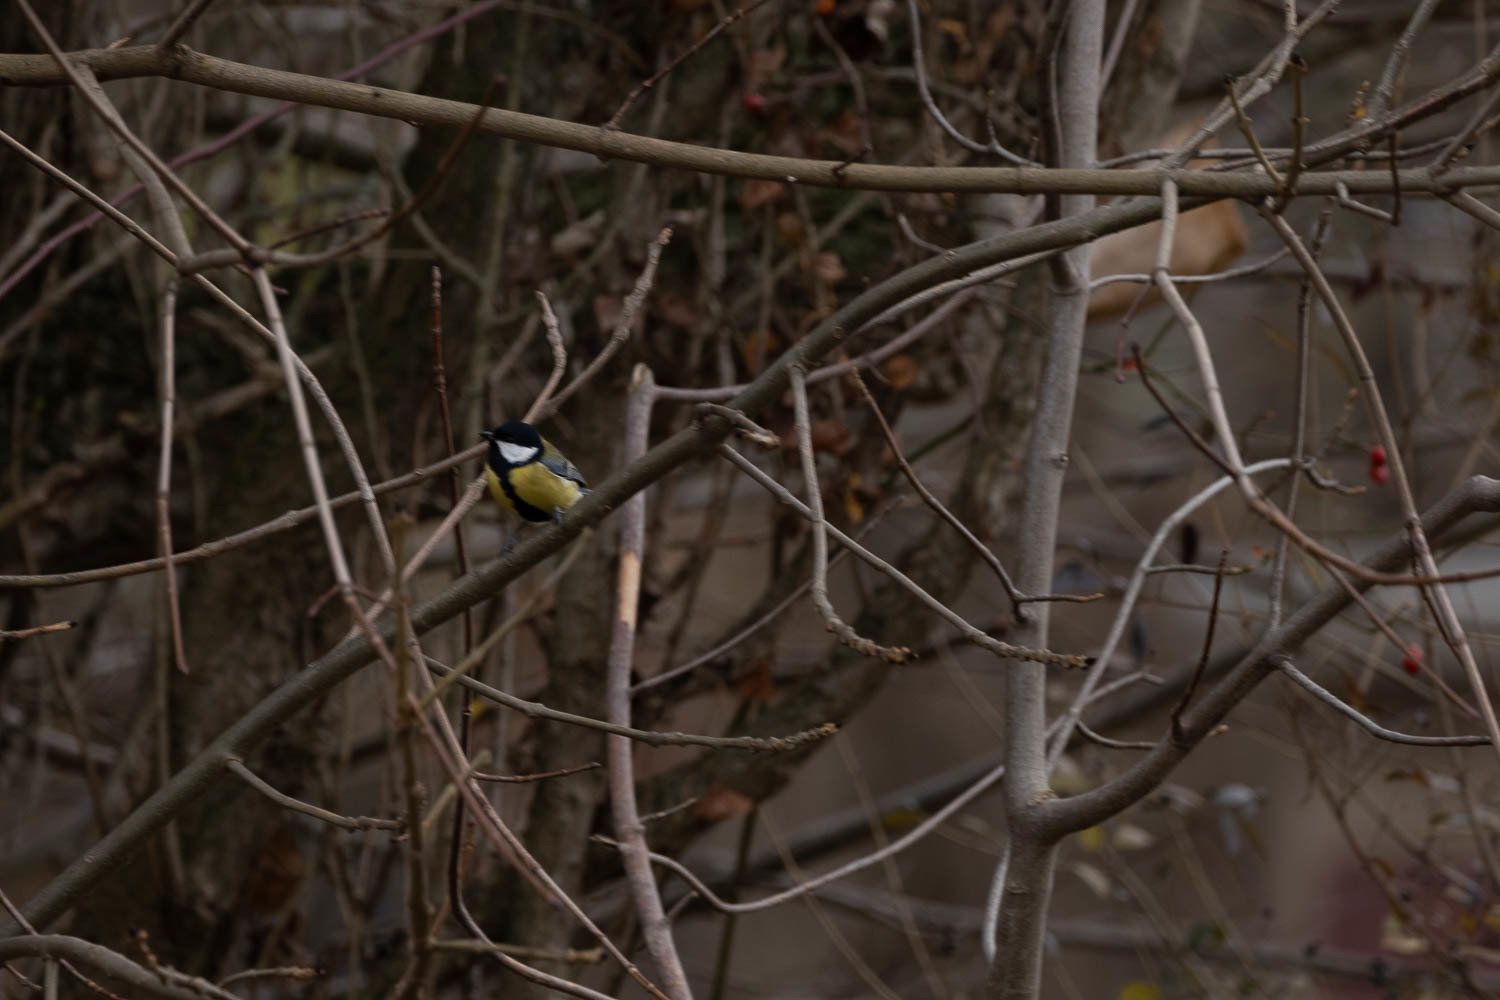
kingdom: Animalia
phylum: Chordata
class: Aves
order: Passeriformes
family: Paridae
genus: Parus
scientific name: Parus major
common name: Great tit
